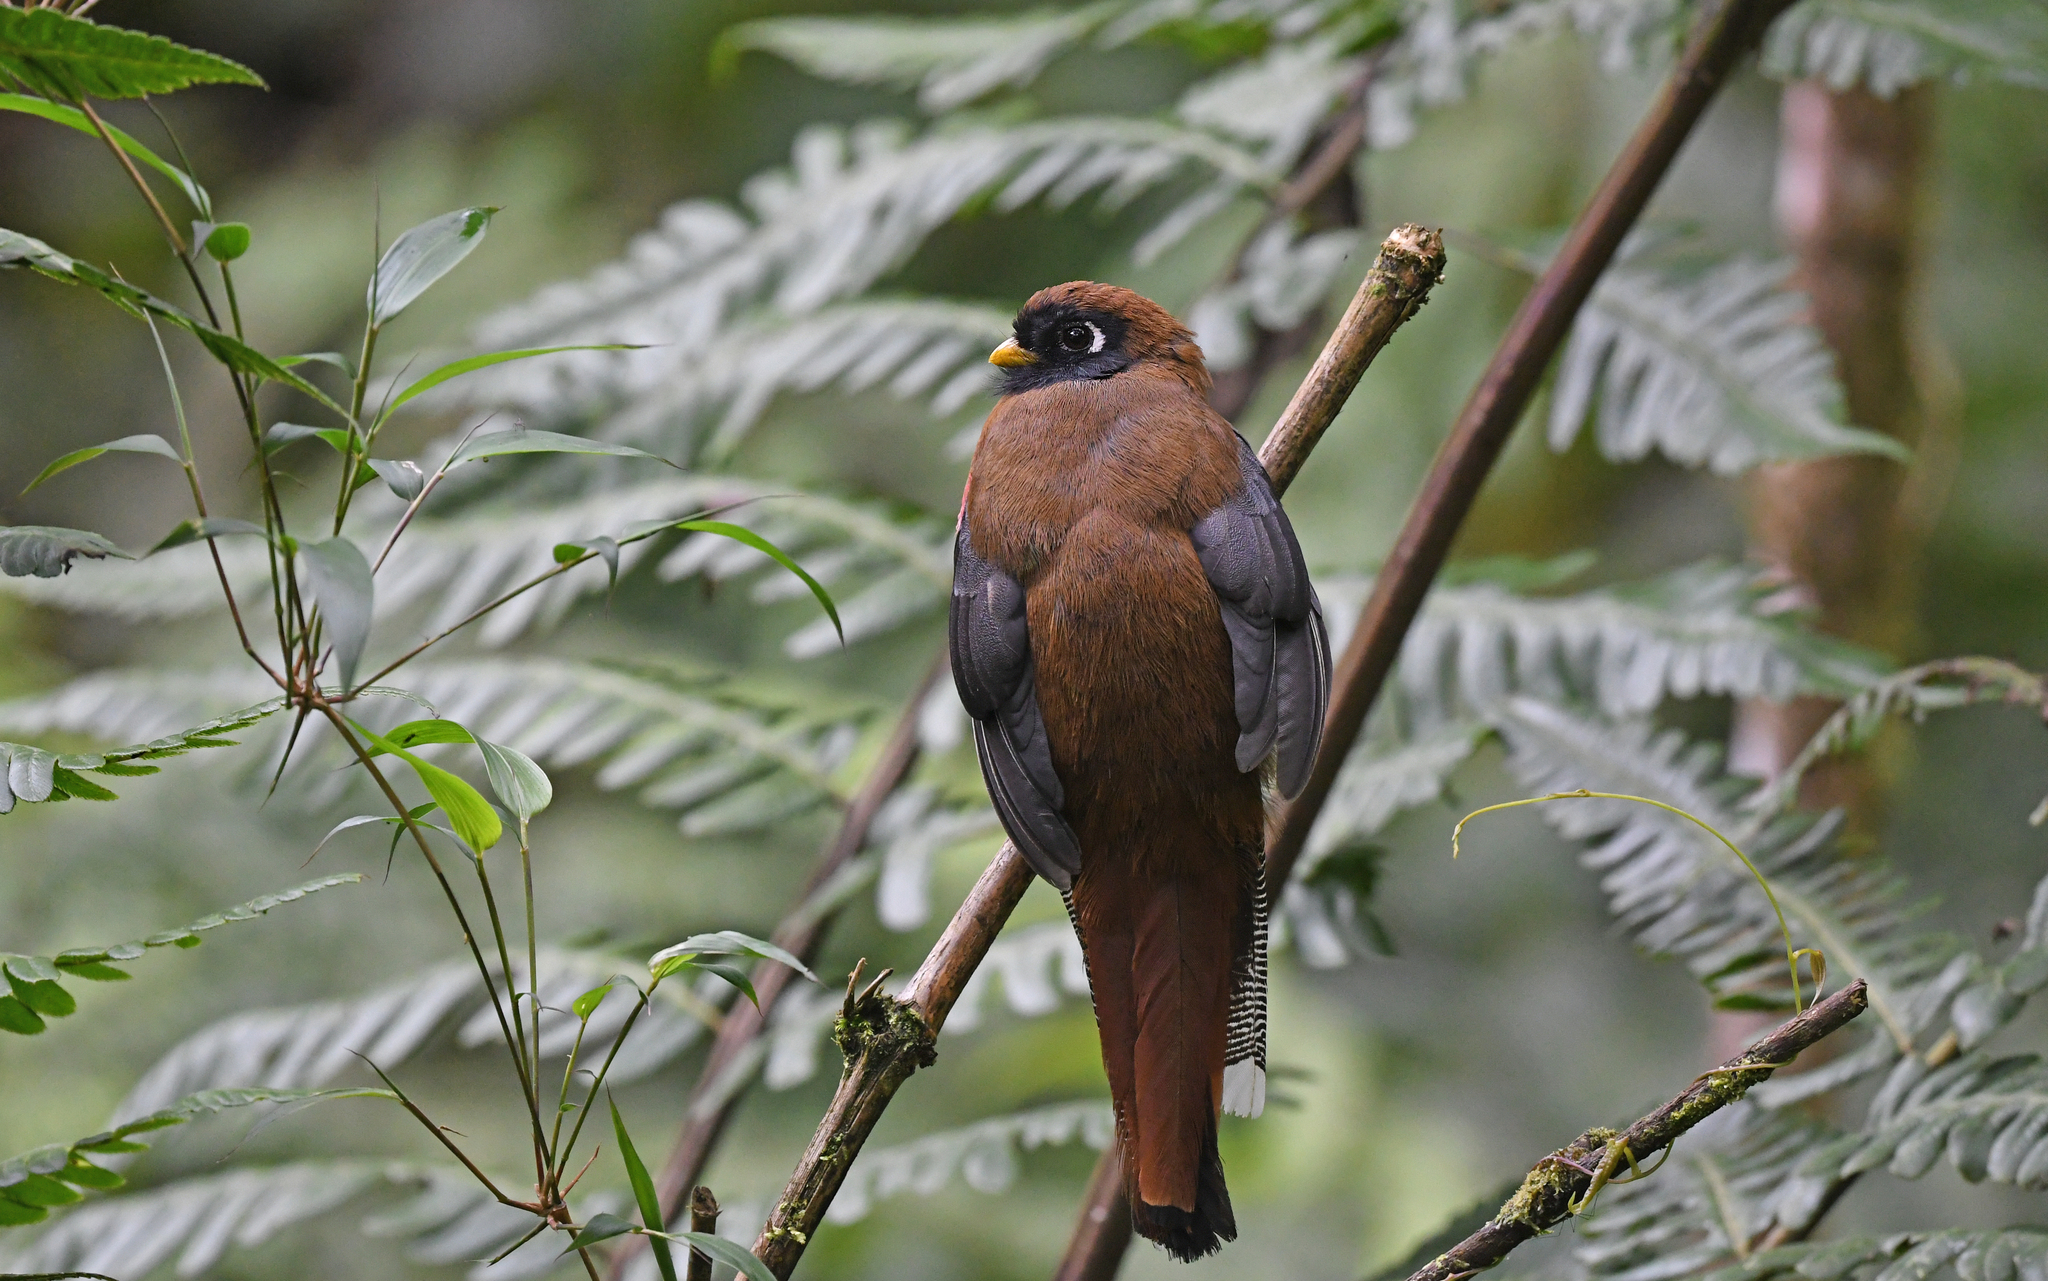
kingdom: Animalia
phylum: Chordata
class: Aves
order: Trogoniformes
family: Trogonidae
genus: Trogon
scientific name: Trogon personatus
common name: Masked trogon
